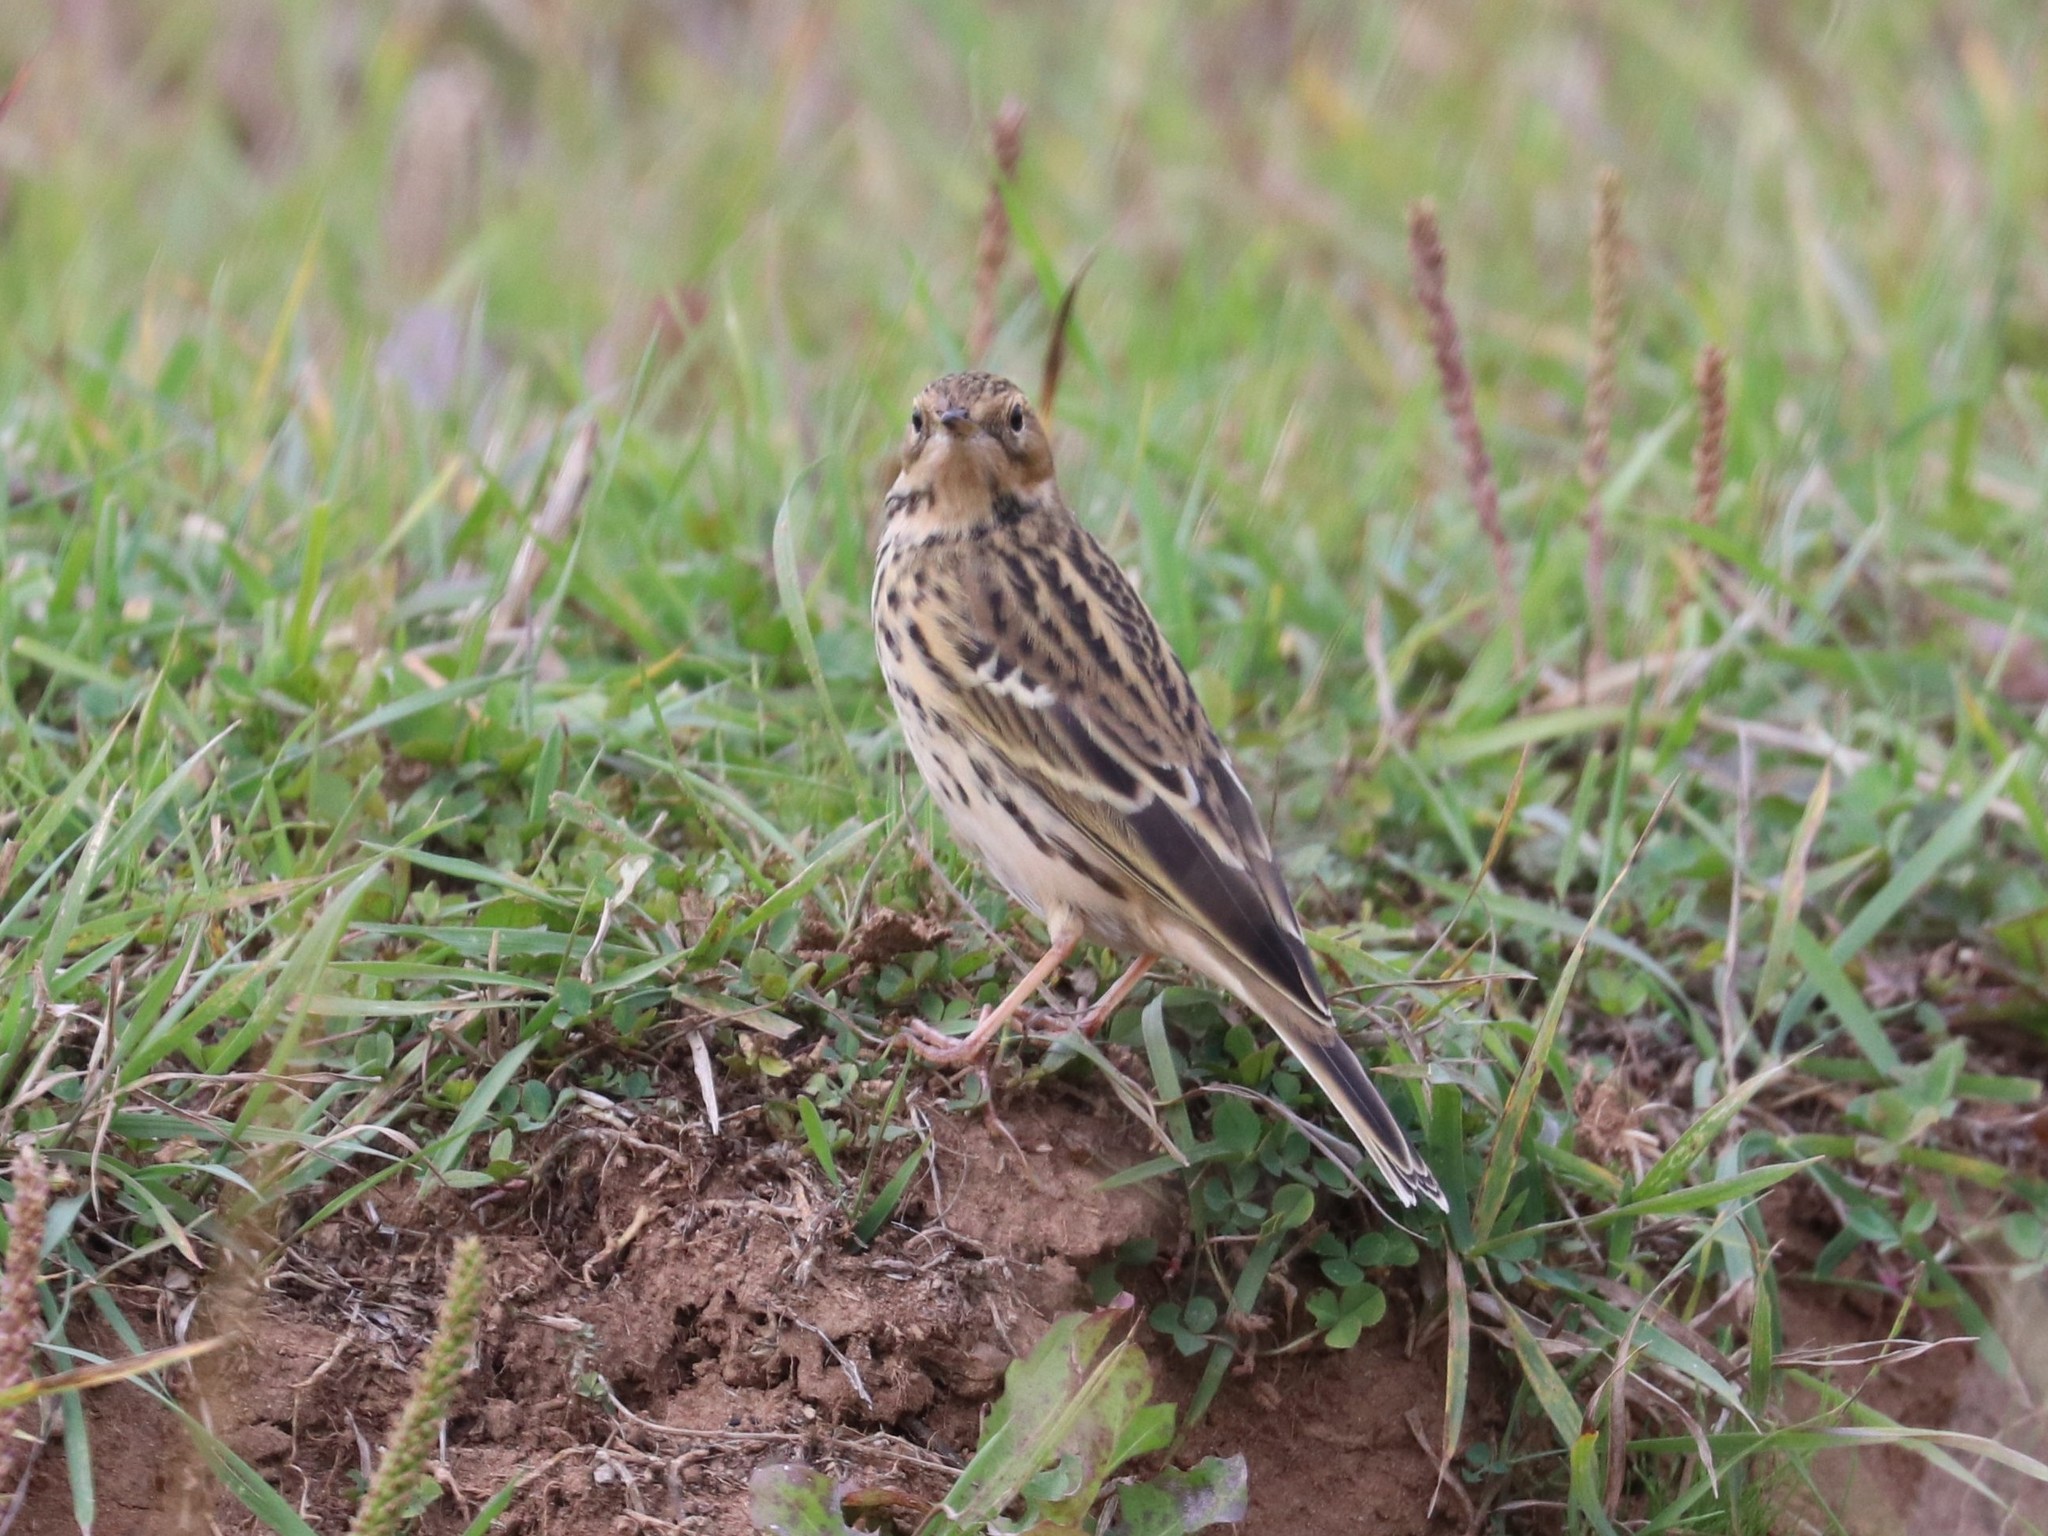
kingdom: Animalia
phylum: Chordata
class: Aves
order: Passeriformes
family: Motacillidae
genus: Anthus
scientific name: Anthus cervinus
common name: Red-throated pipit
